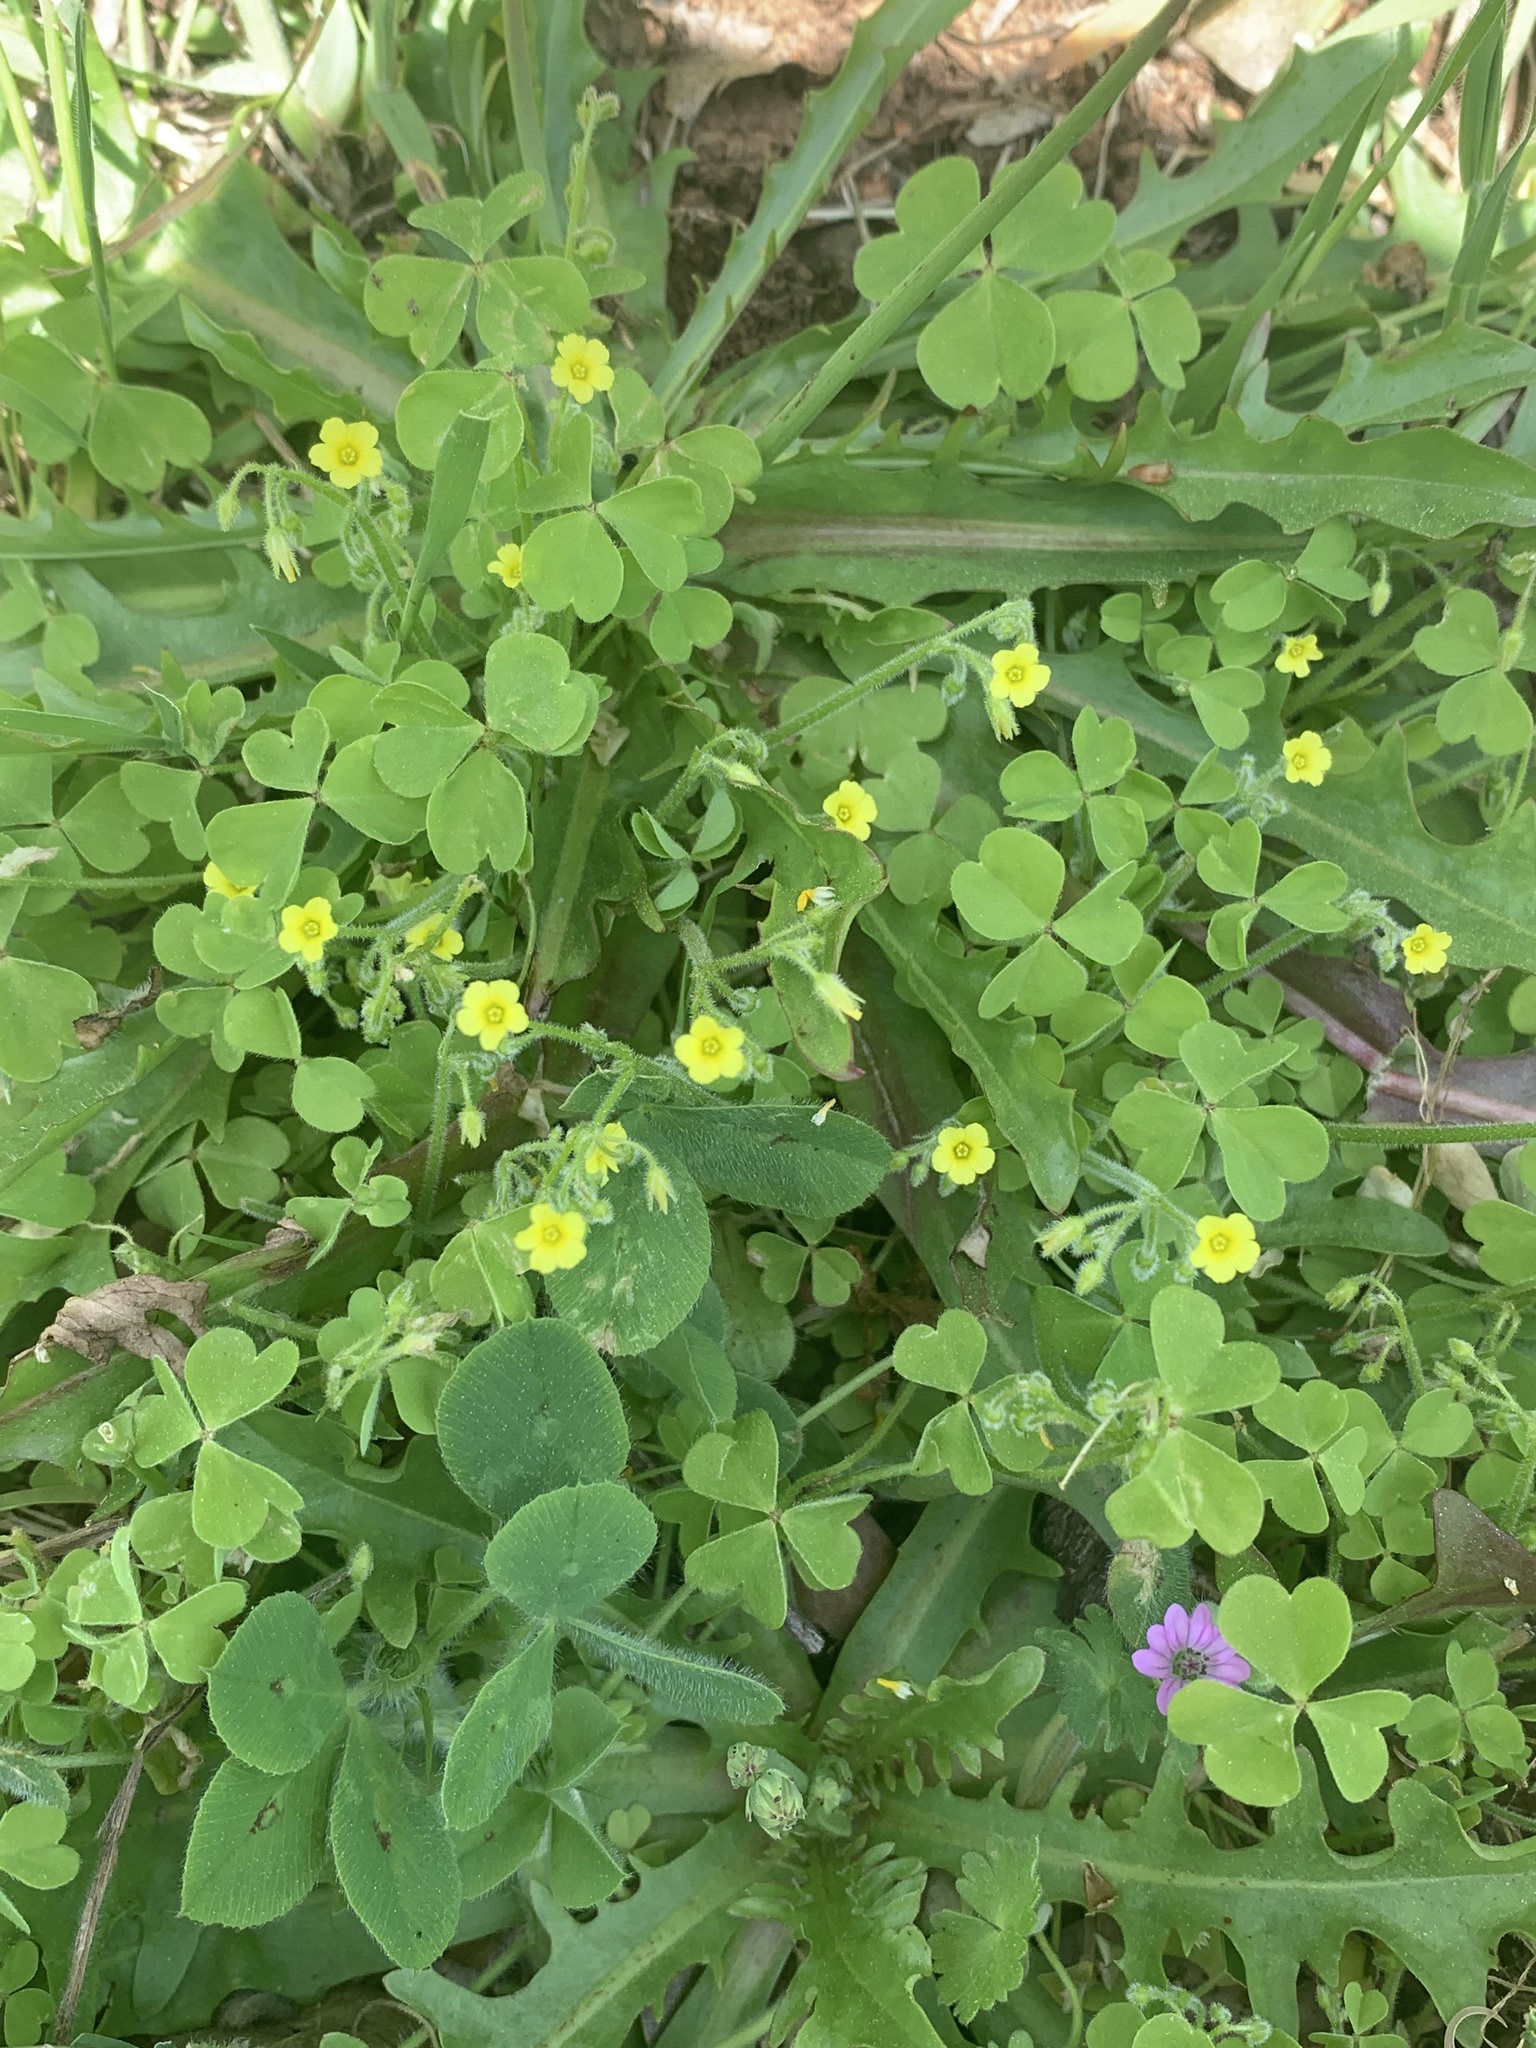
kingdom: Plantae
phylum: Tracheophyta
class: Magnoliopsida
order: Oxalidales
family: Oxalidaceae
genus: Oxalis
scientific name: Oxalis laxa
